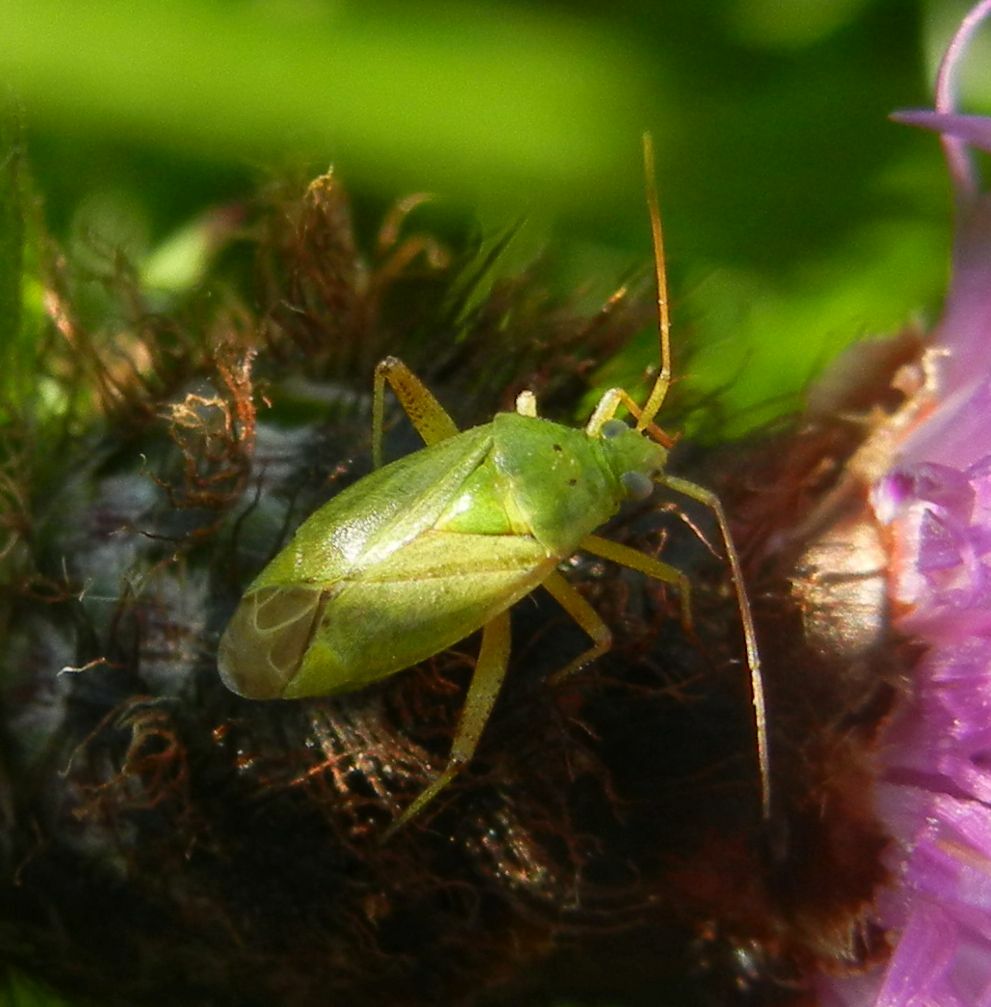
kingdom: Animalia
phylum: Arthropoda
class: Insecta
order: Hemiptera
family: Miridae
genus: Closterotomus
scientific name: Closterotomus norvegicus
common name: Plant bug
